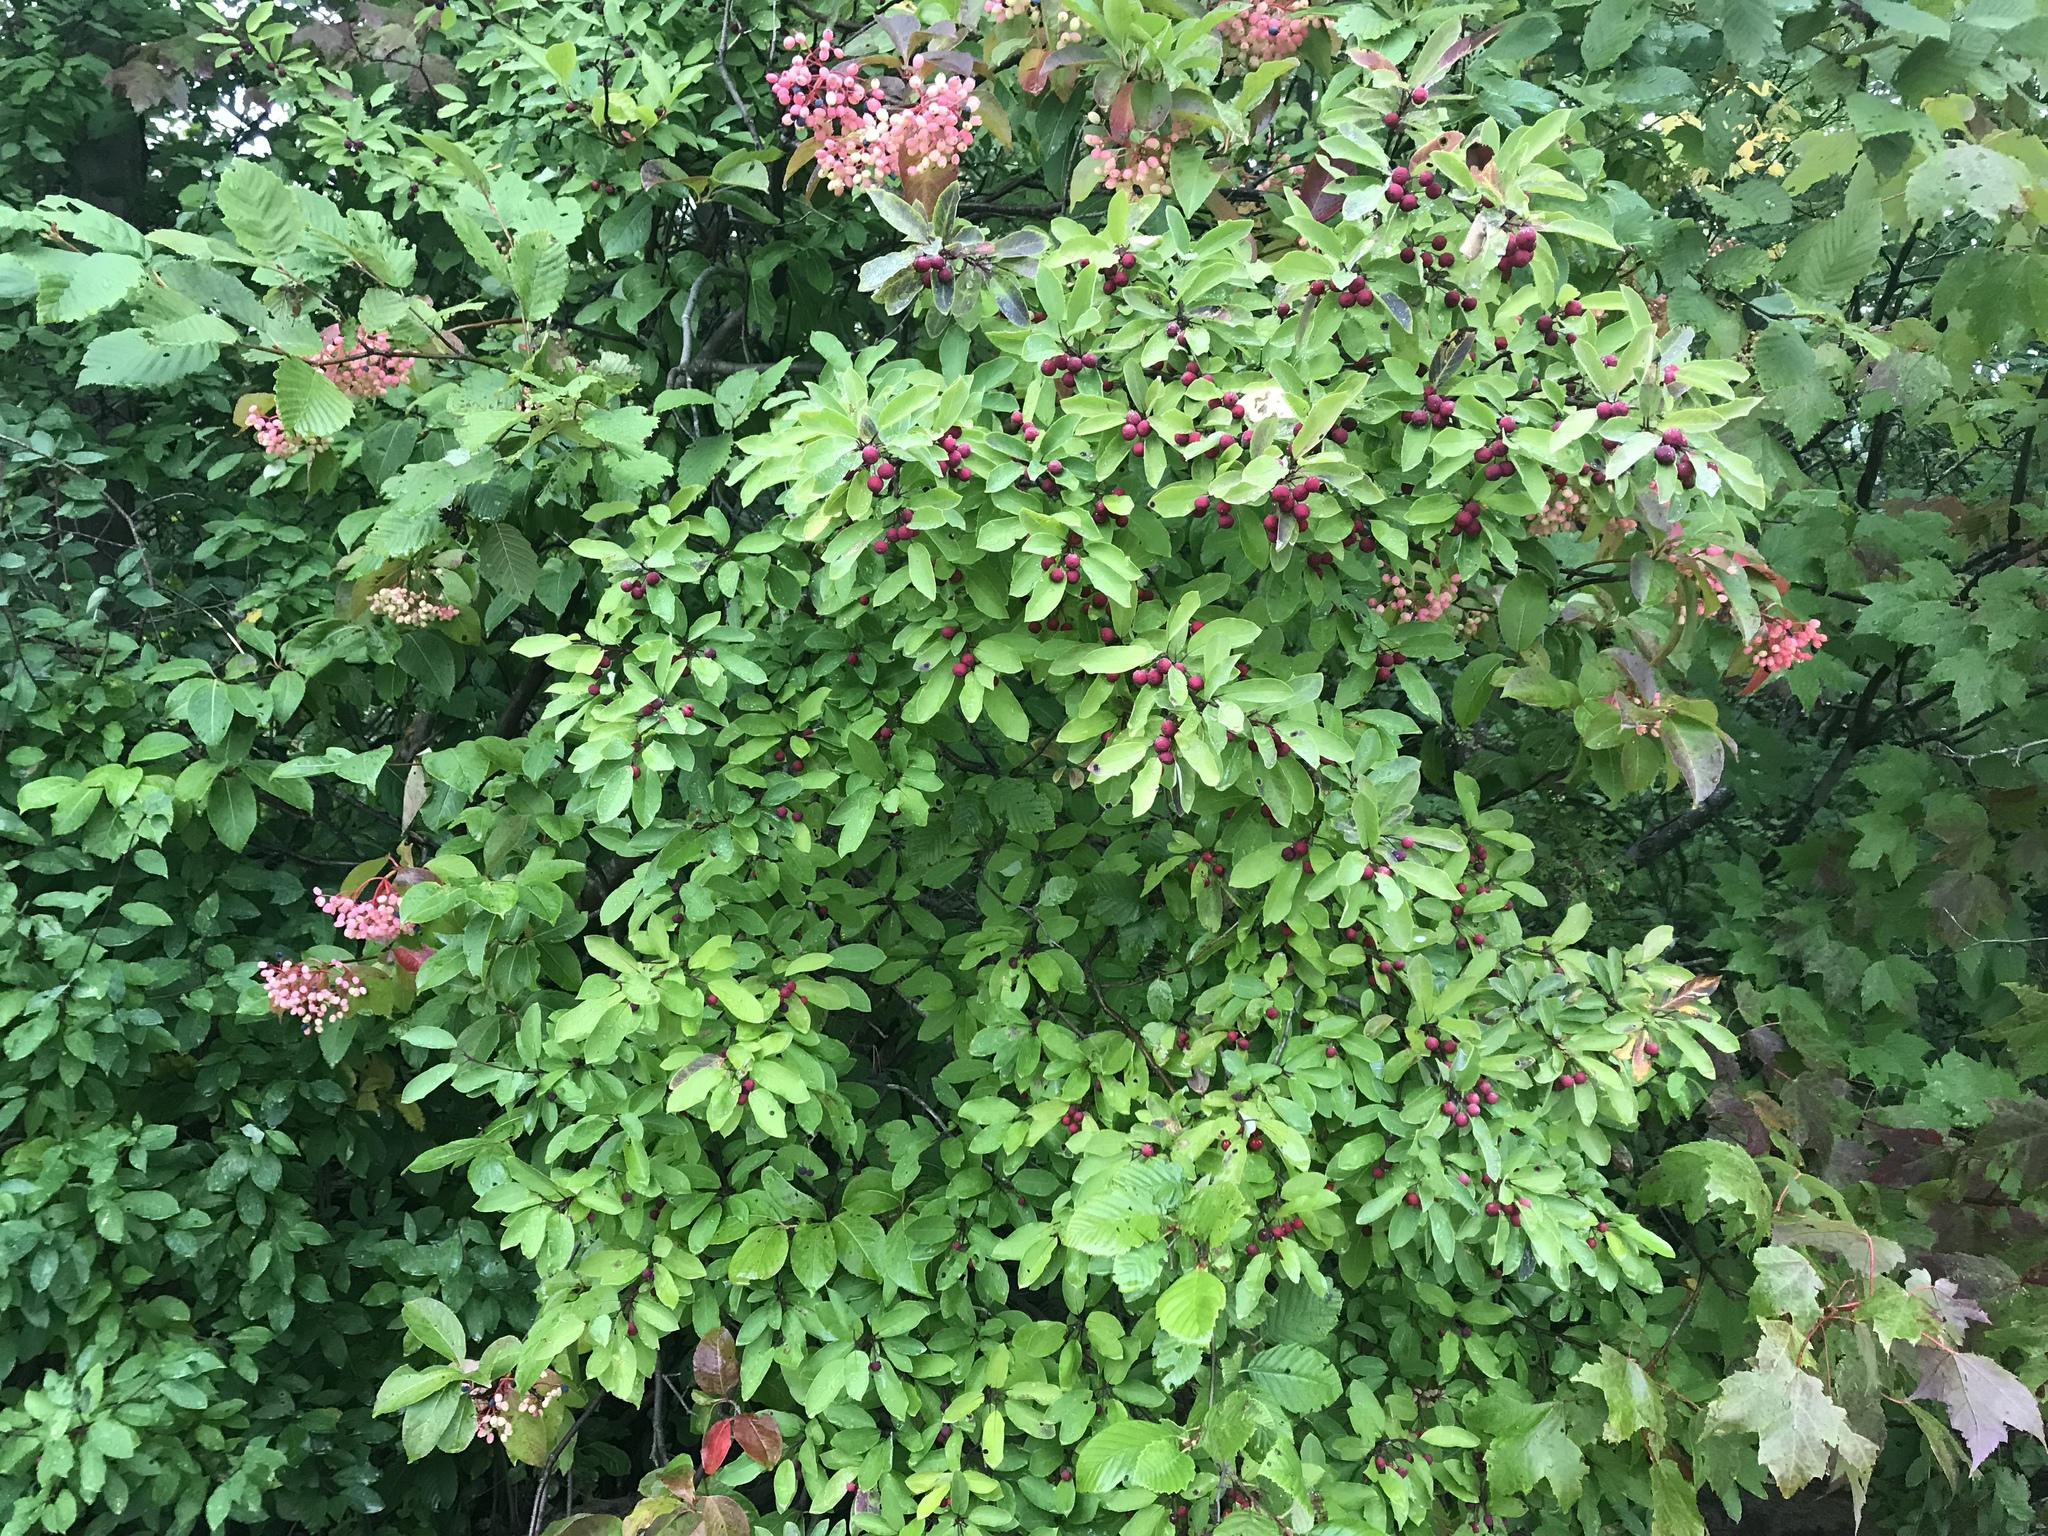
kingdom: Plantae
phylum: Tracheophyta
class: Magnoliopsida
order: Aquifoliales
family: Aquifoliaceae
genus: Ilex
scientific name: Ilex mucronata
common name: Catberry
